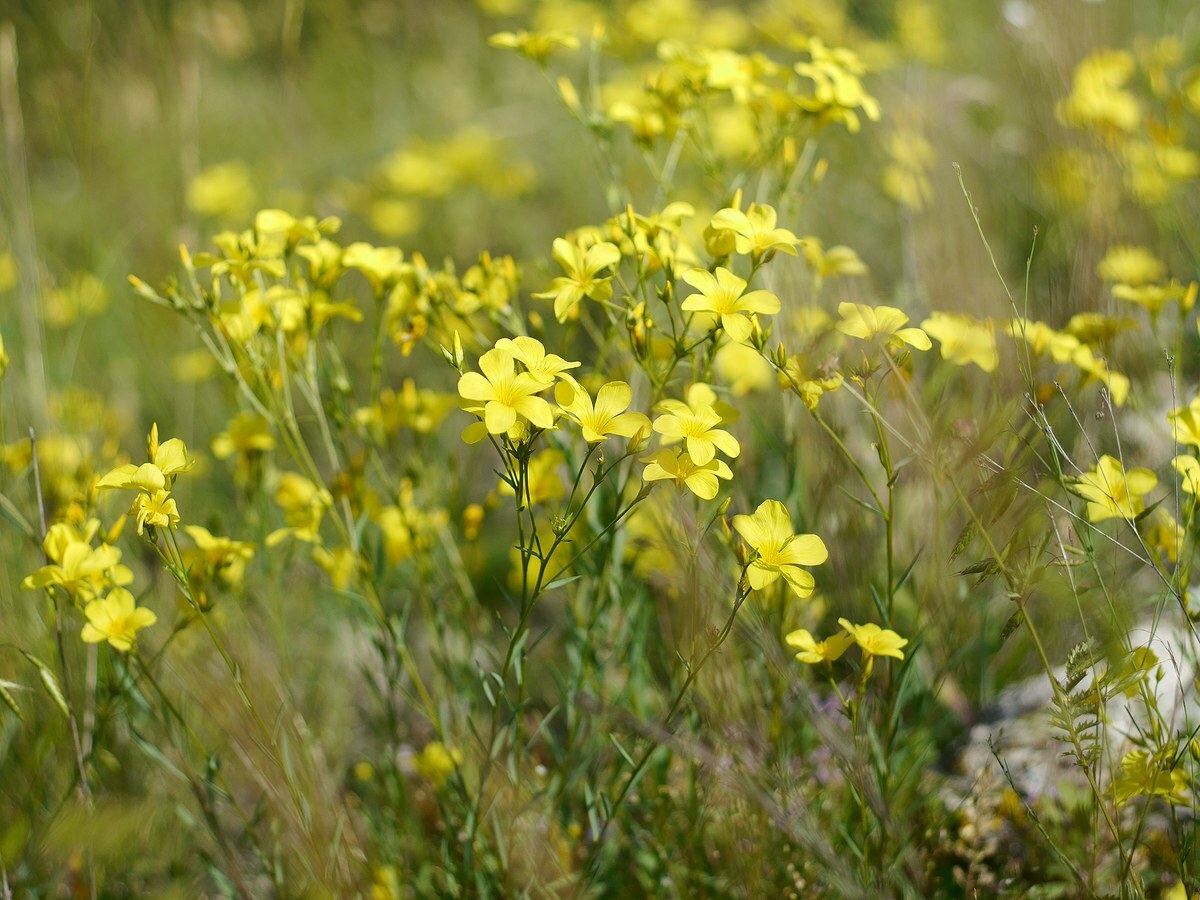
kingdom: Plantae
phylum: Tracheophyta
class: Magnoliopsida
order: Malpighiales
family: Linaceae
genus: Linum
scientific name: Linum tauricum
